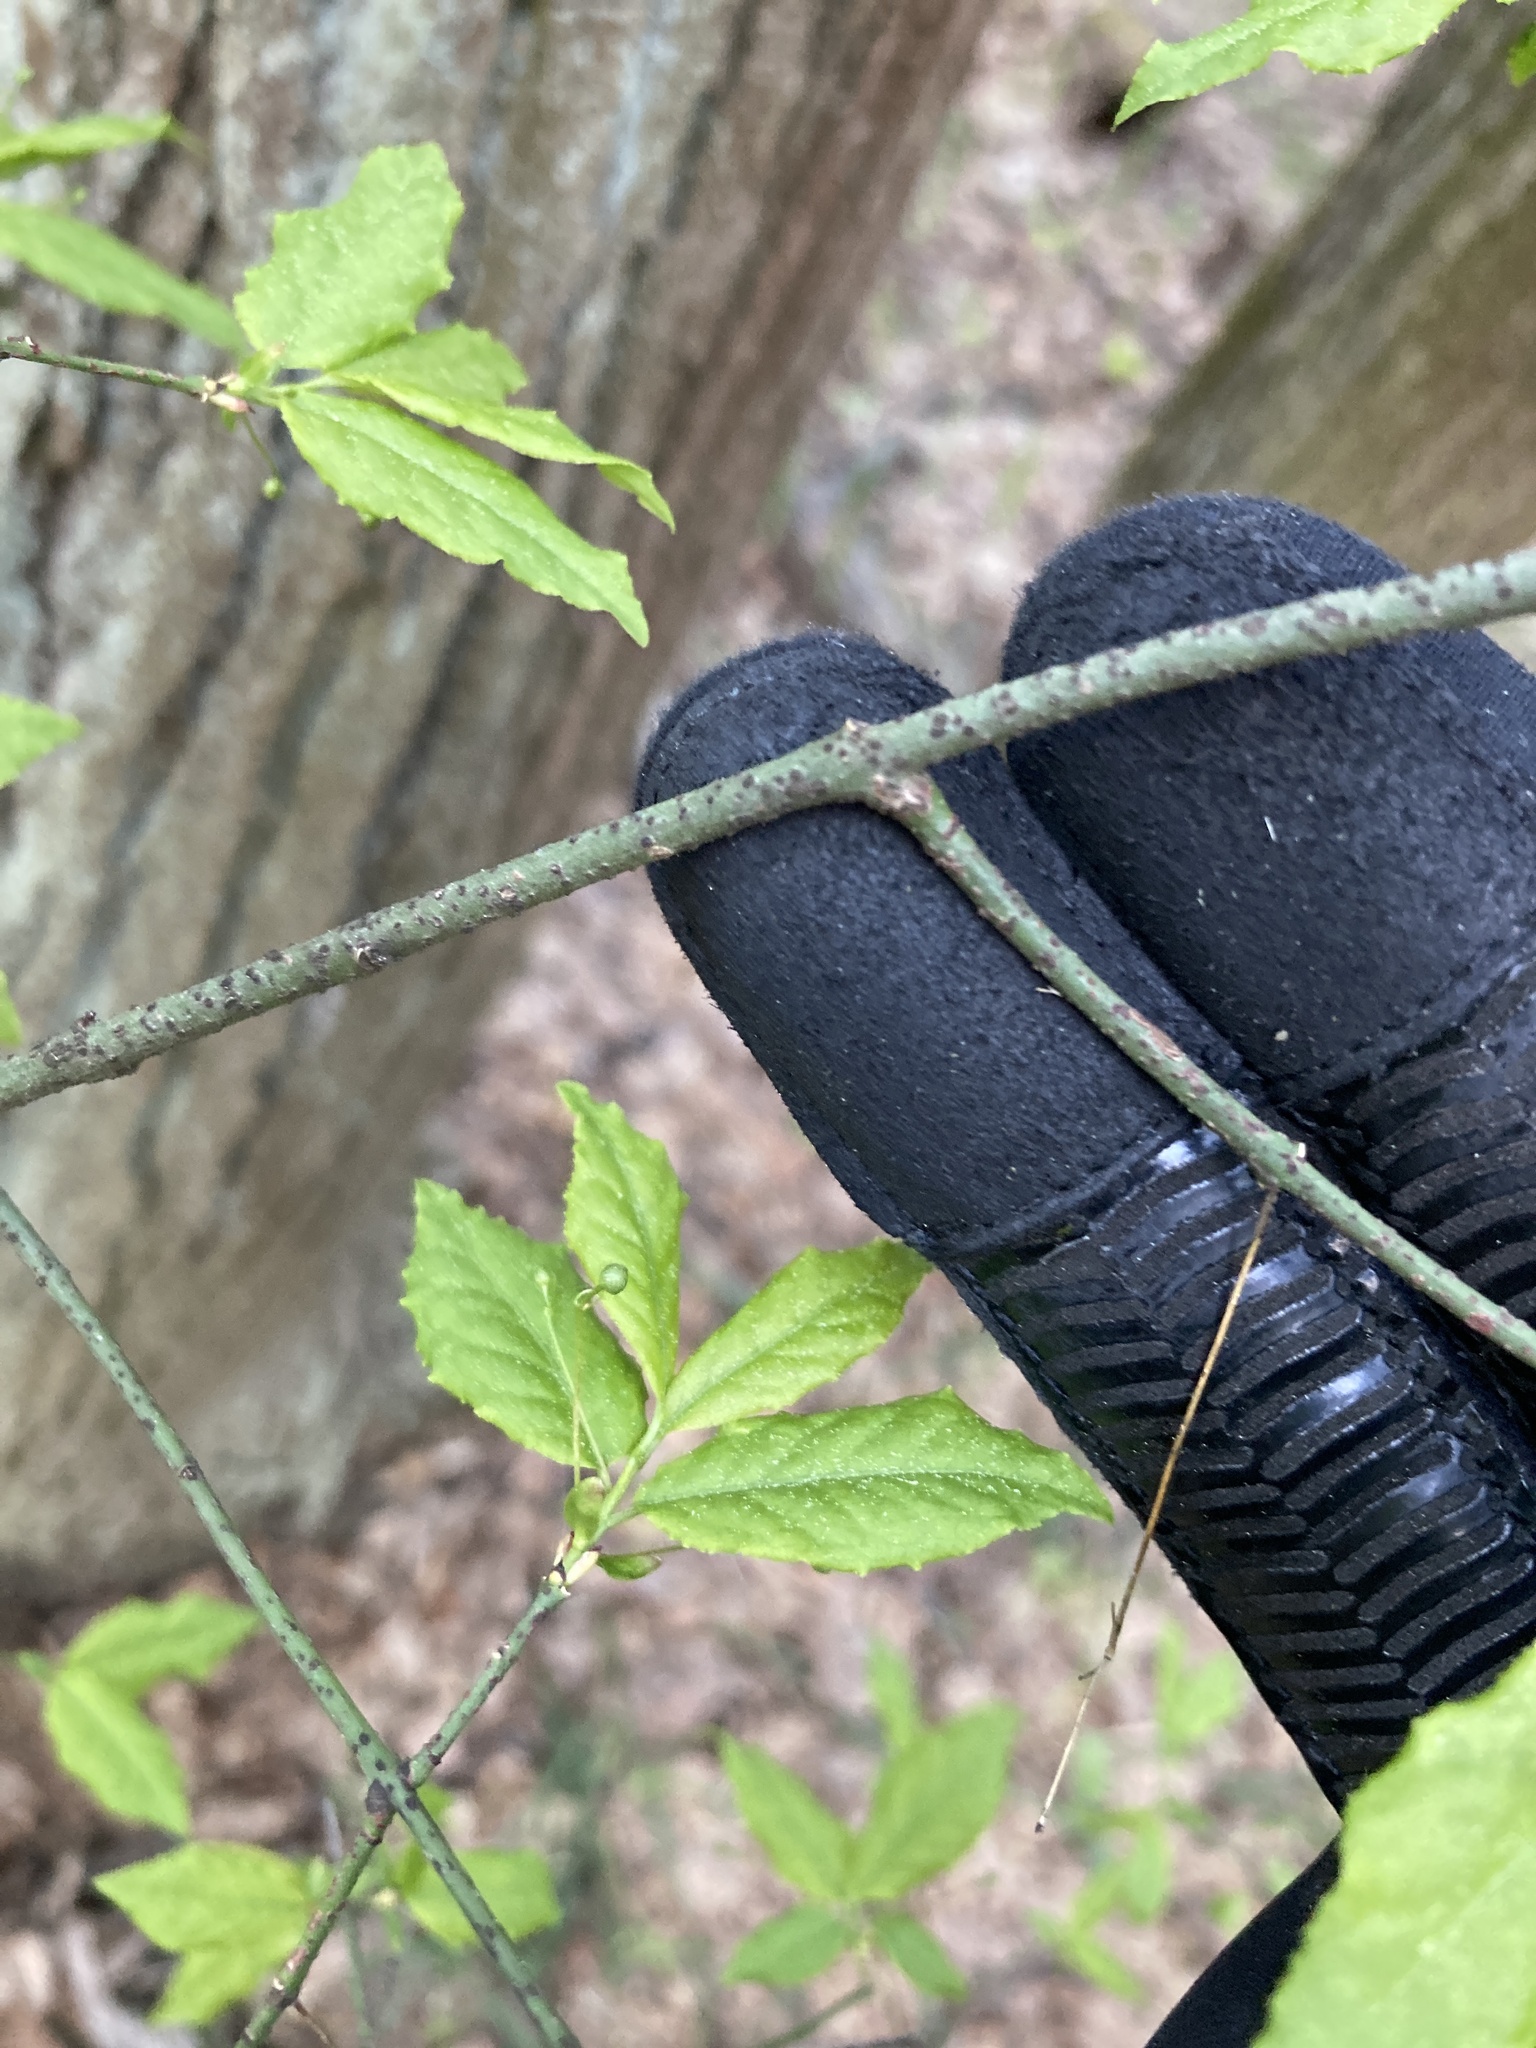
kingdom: Plantae
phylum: Tracheophyta
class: Magnoliopsida
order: Celastrales
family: Celastraceae
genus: Euonymus
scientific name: Euonymus verrucosus
